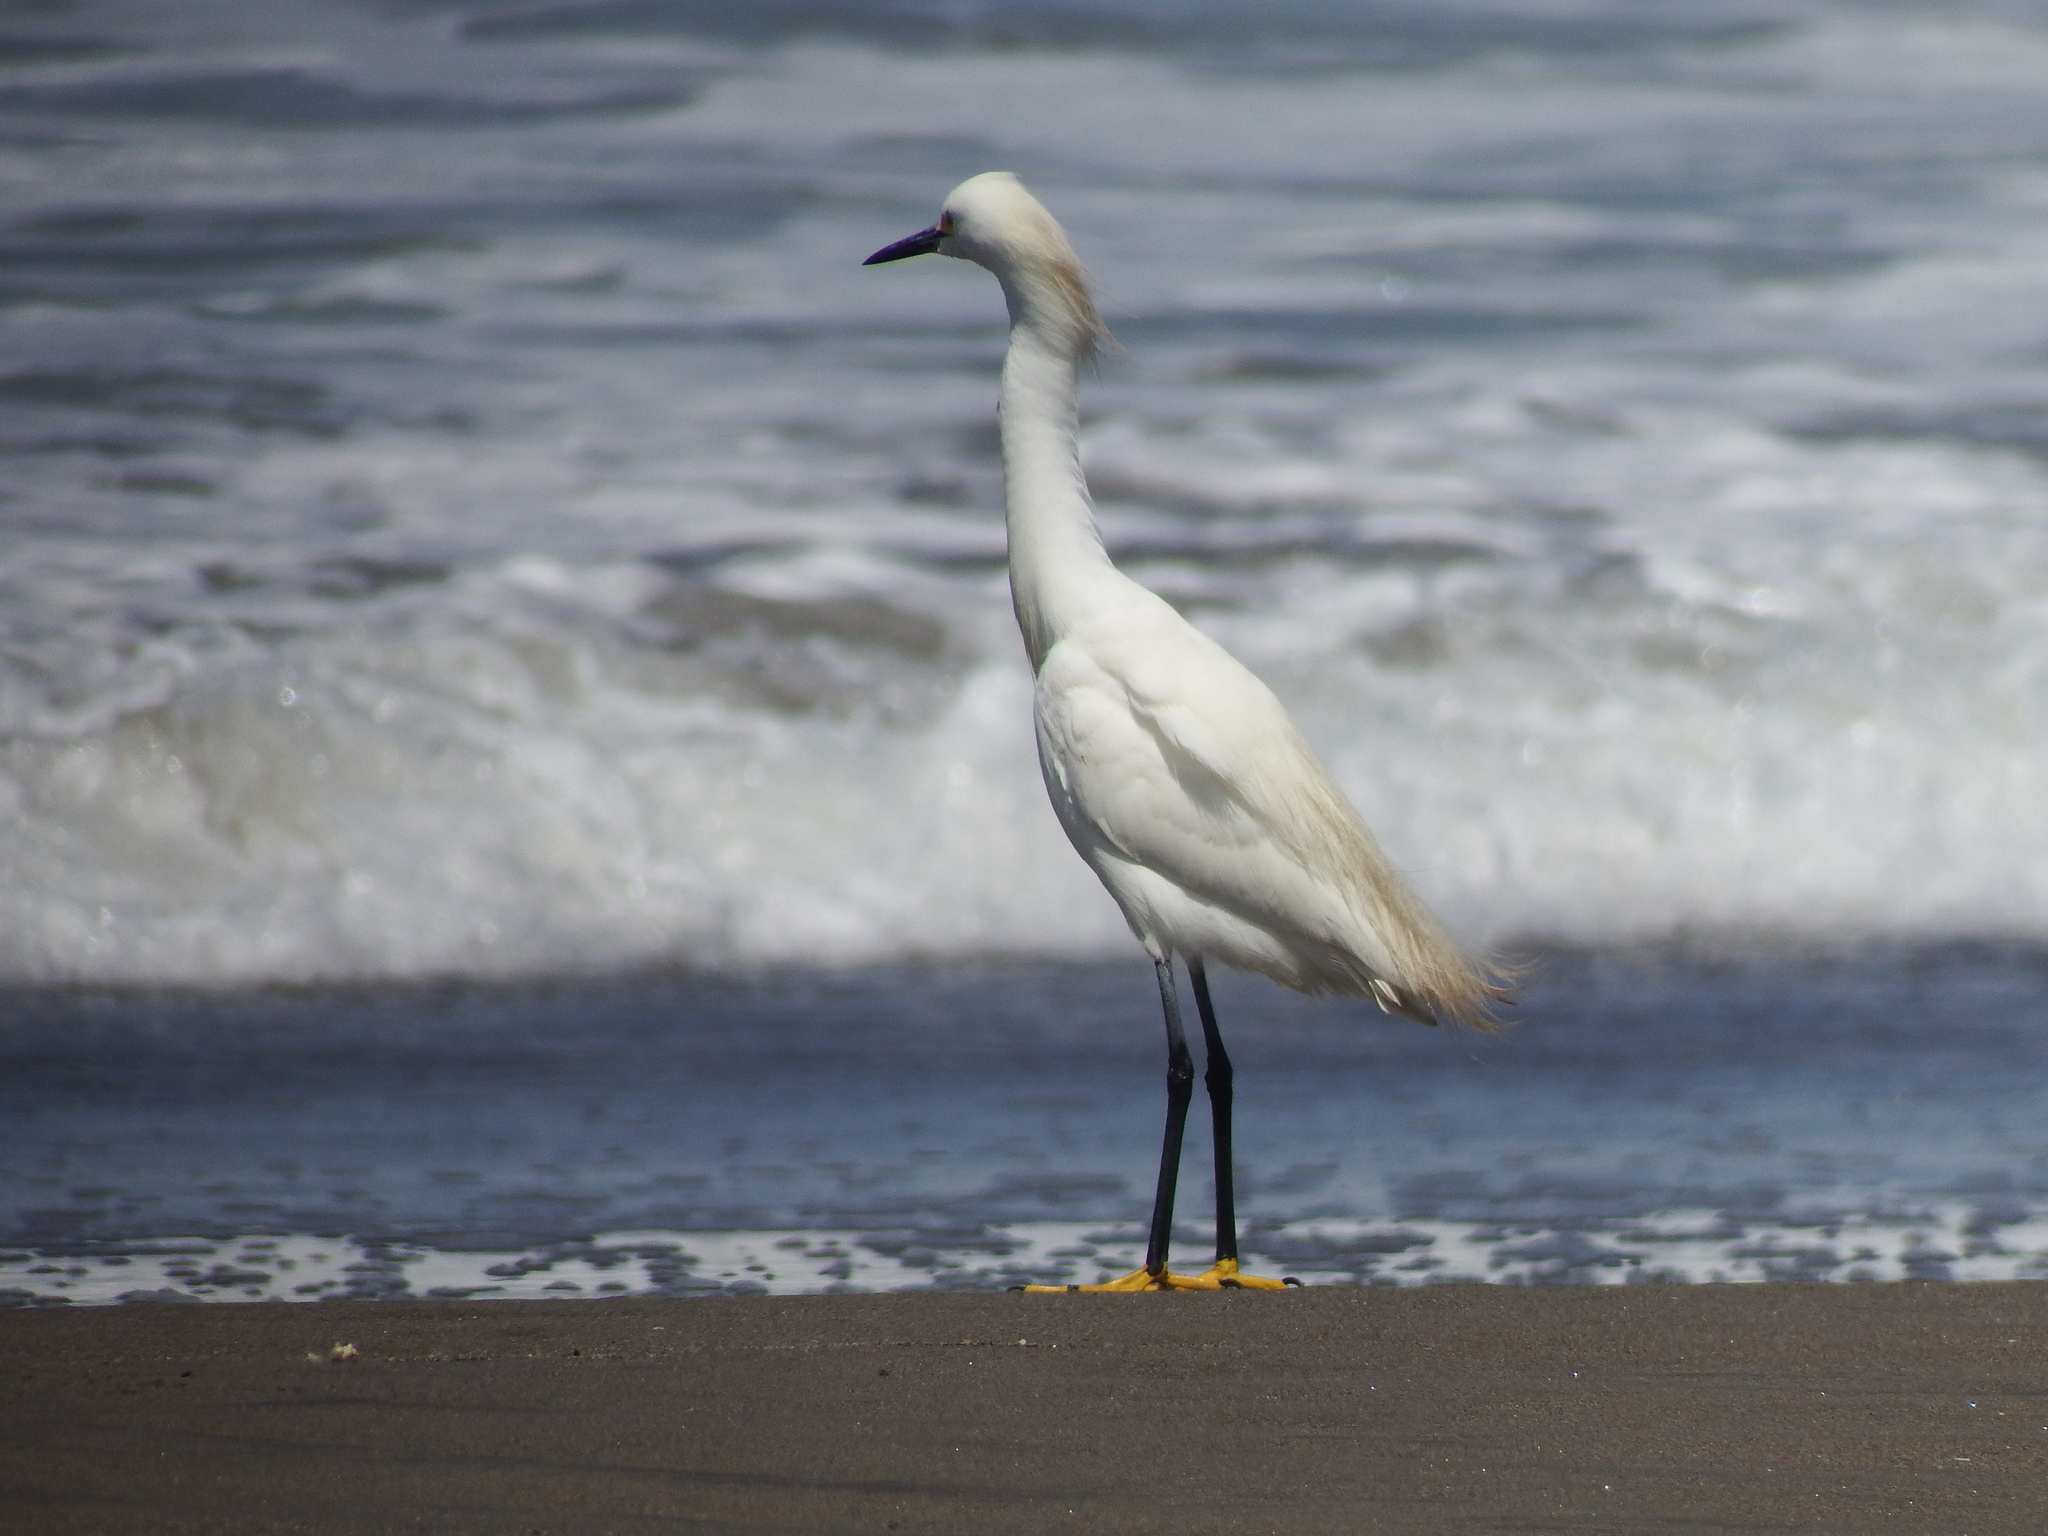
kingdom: Animalia
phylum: Chordata
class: Aves
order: Pelecaniformes
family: Ardeidae
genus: Egretta
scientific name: Egretta thula
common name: Snowy egret
